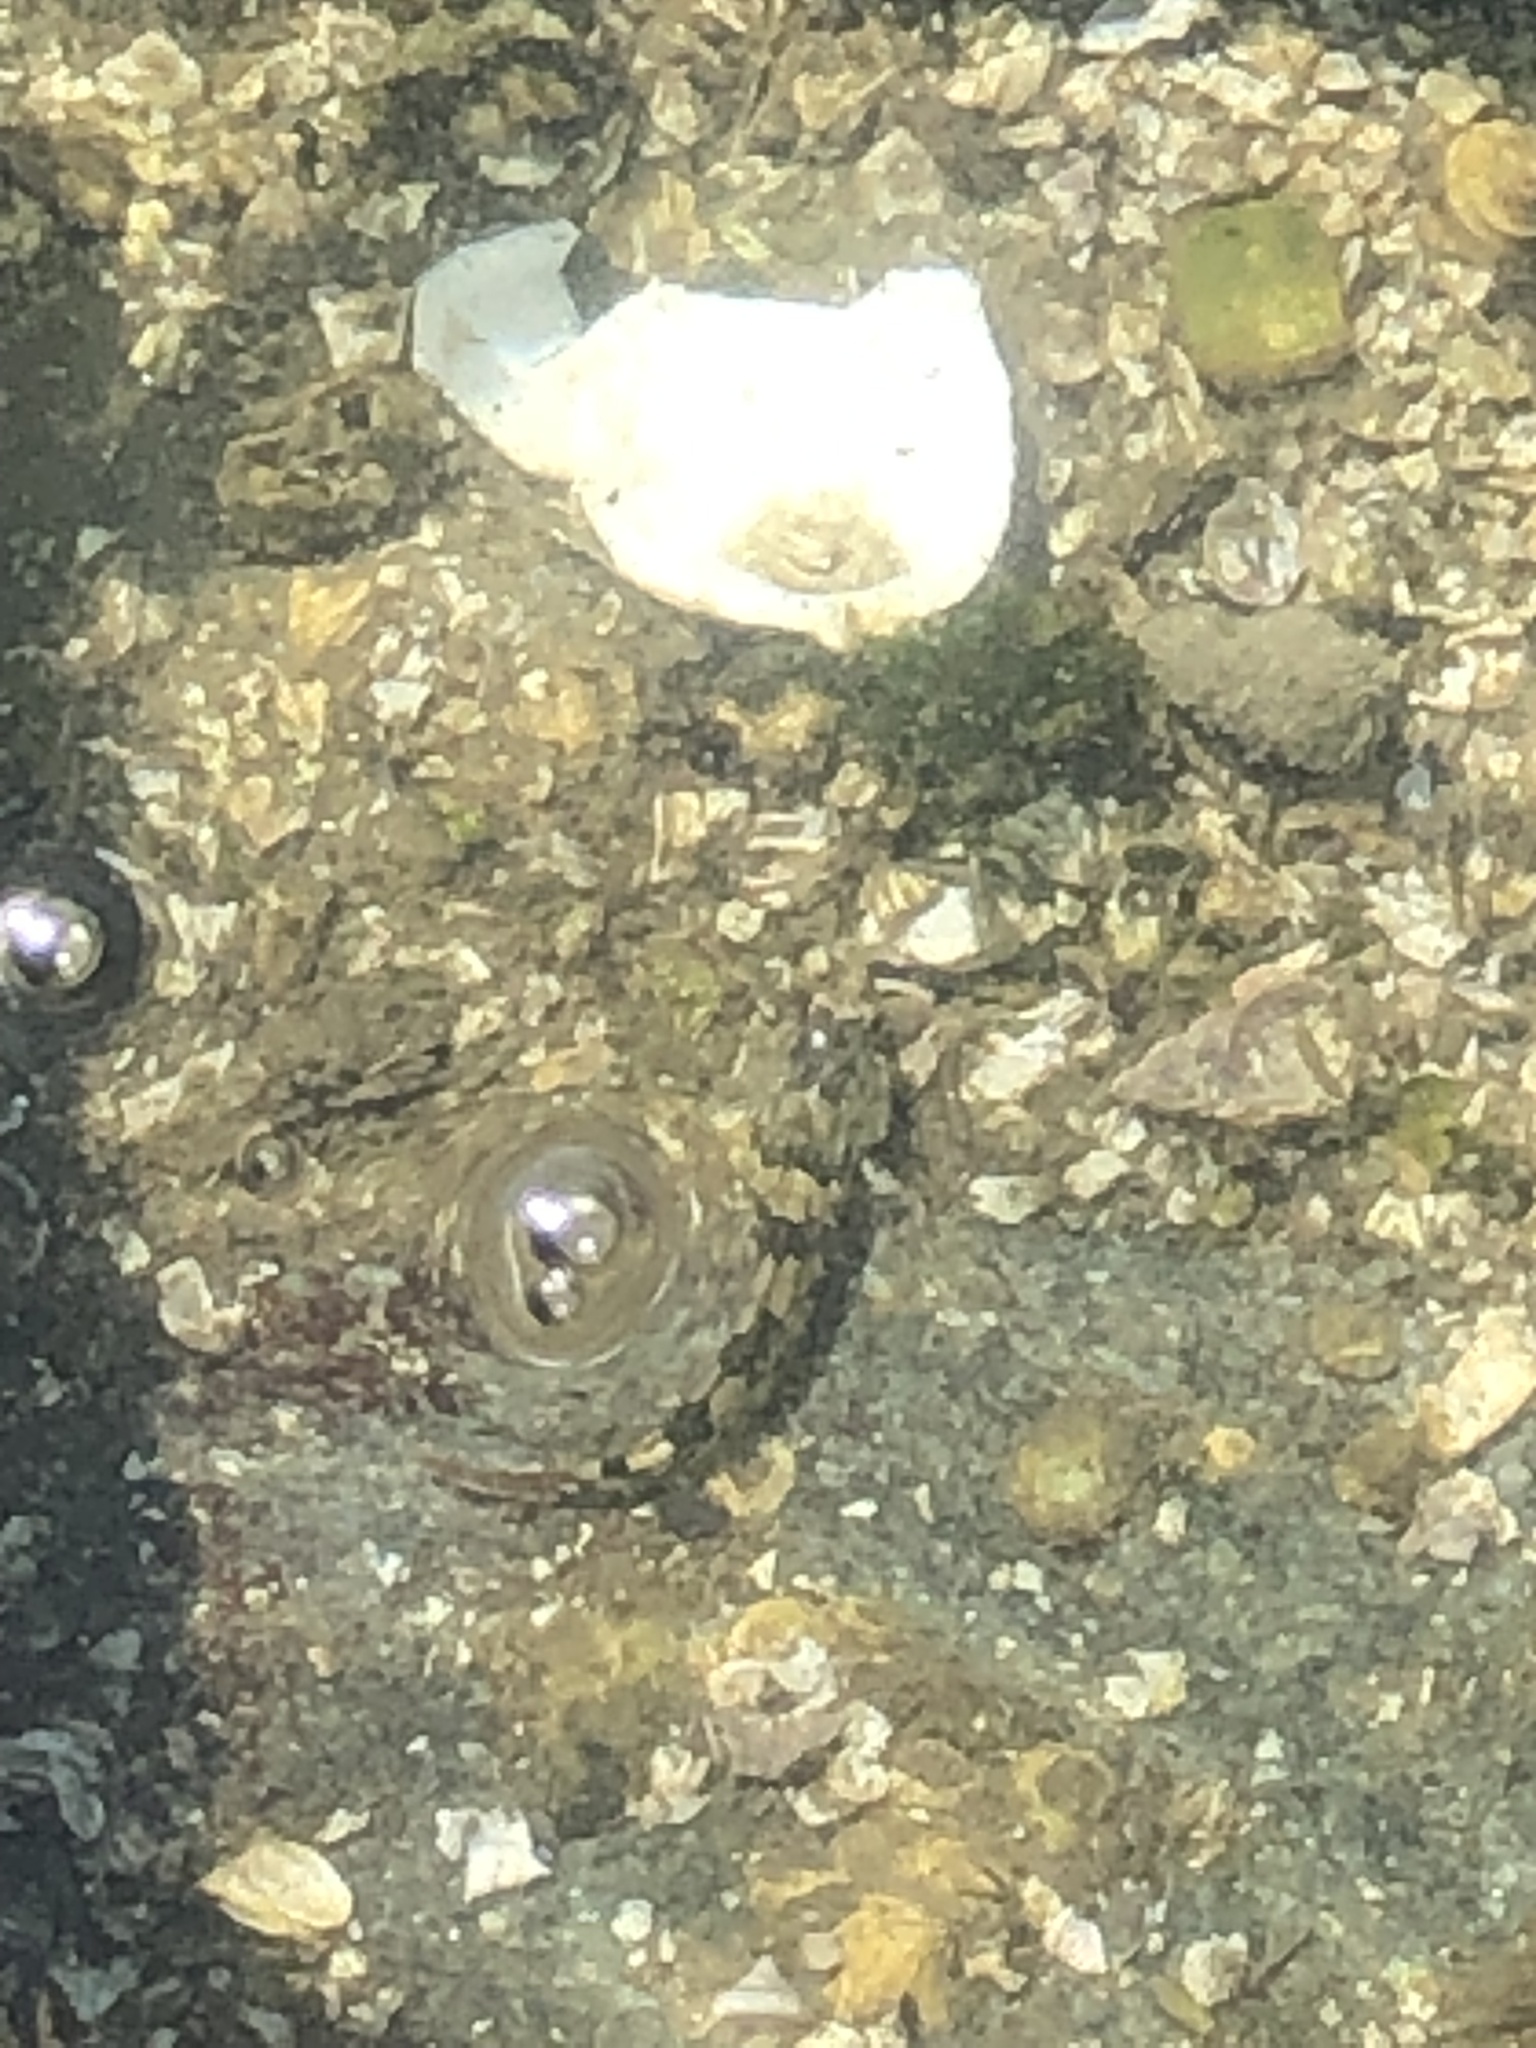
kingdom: Animalia
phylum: Chordata
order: Scorpaeniformes
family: Cottidae
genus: Oligocottus
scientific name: Oligocottus maculosus
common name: Tidepool sculpin
